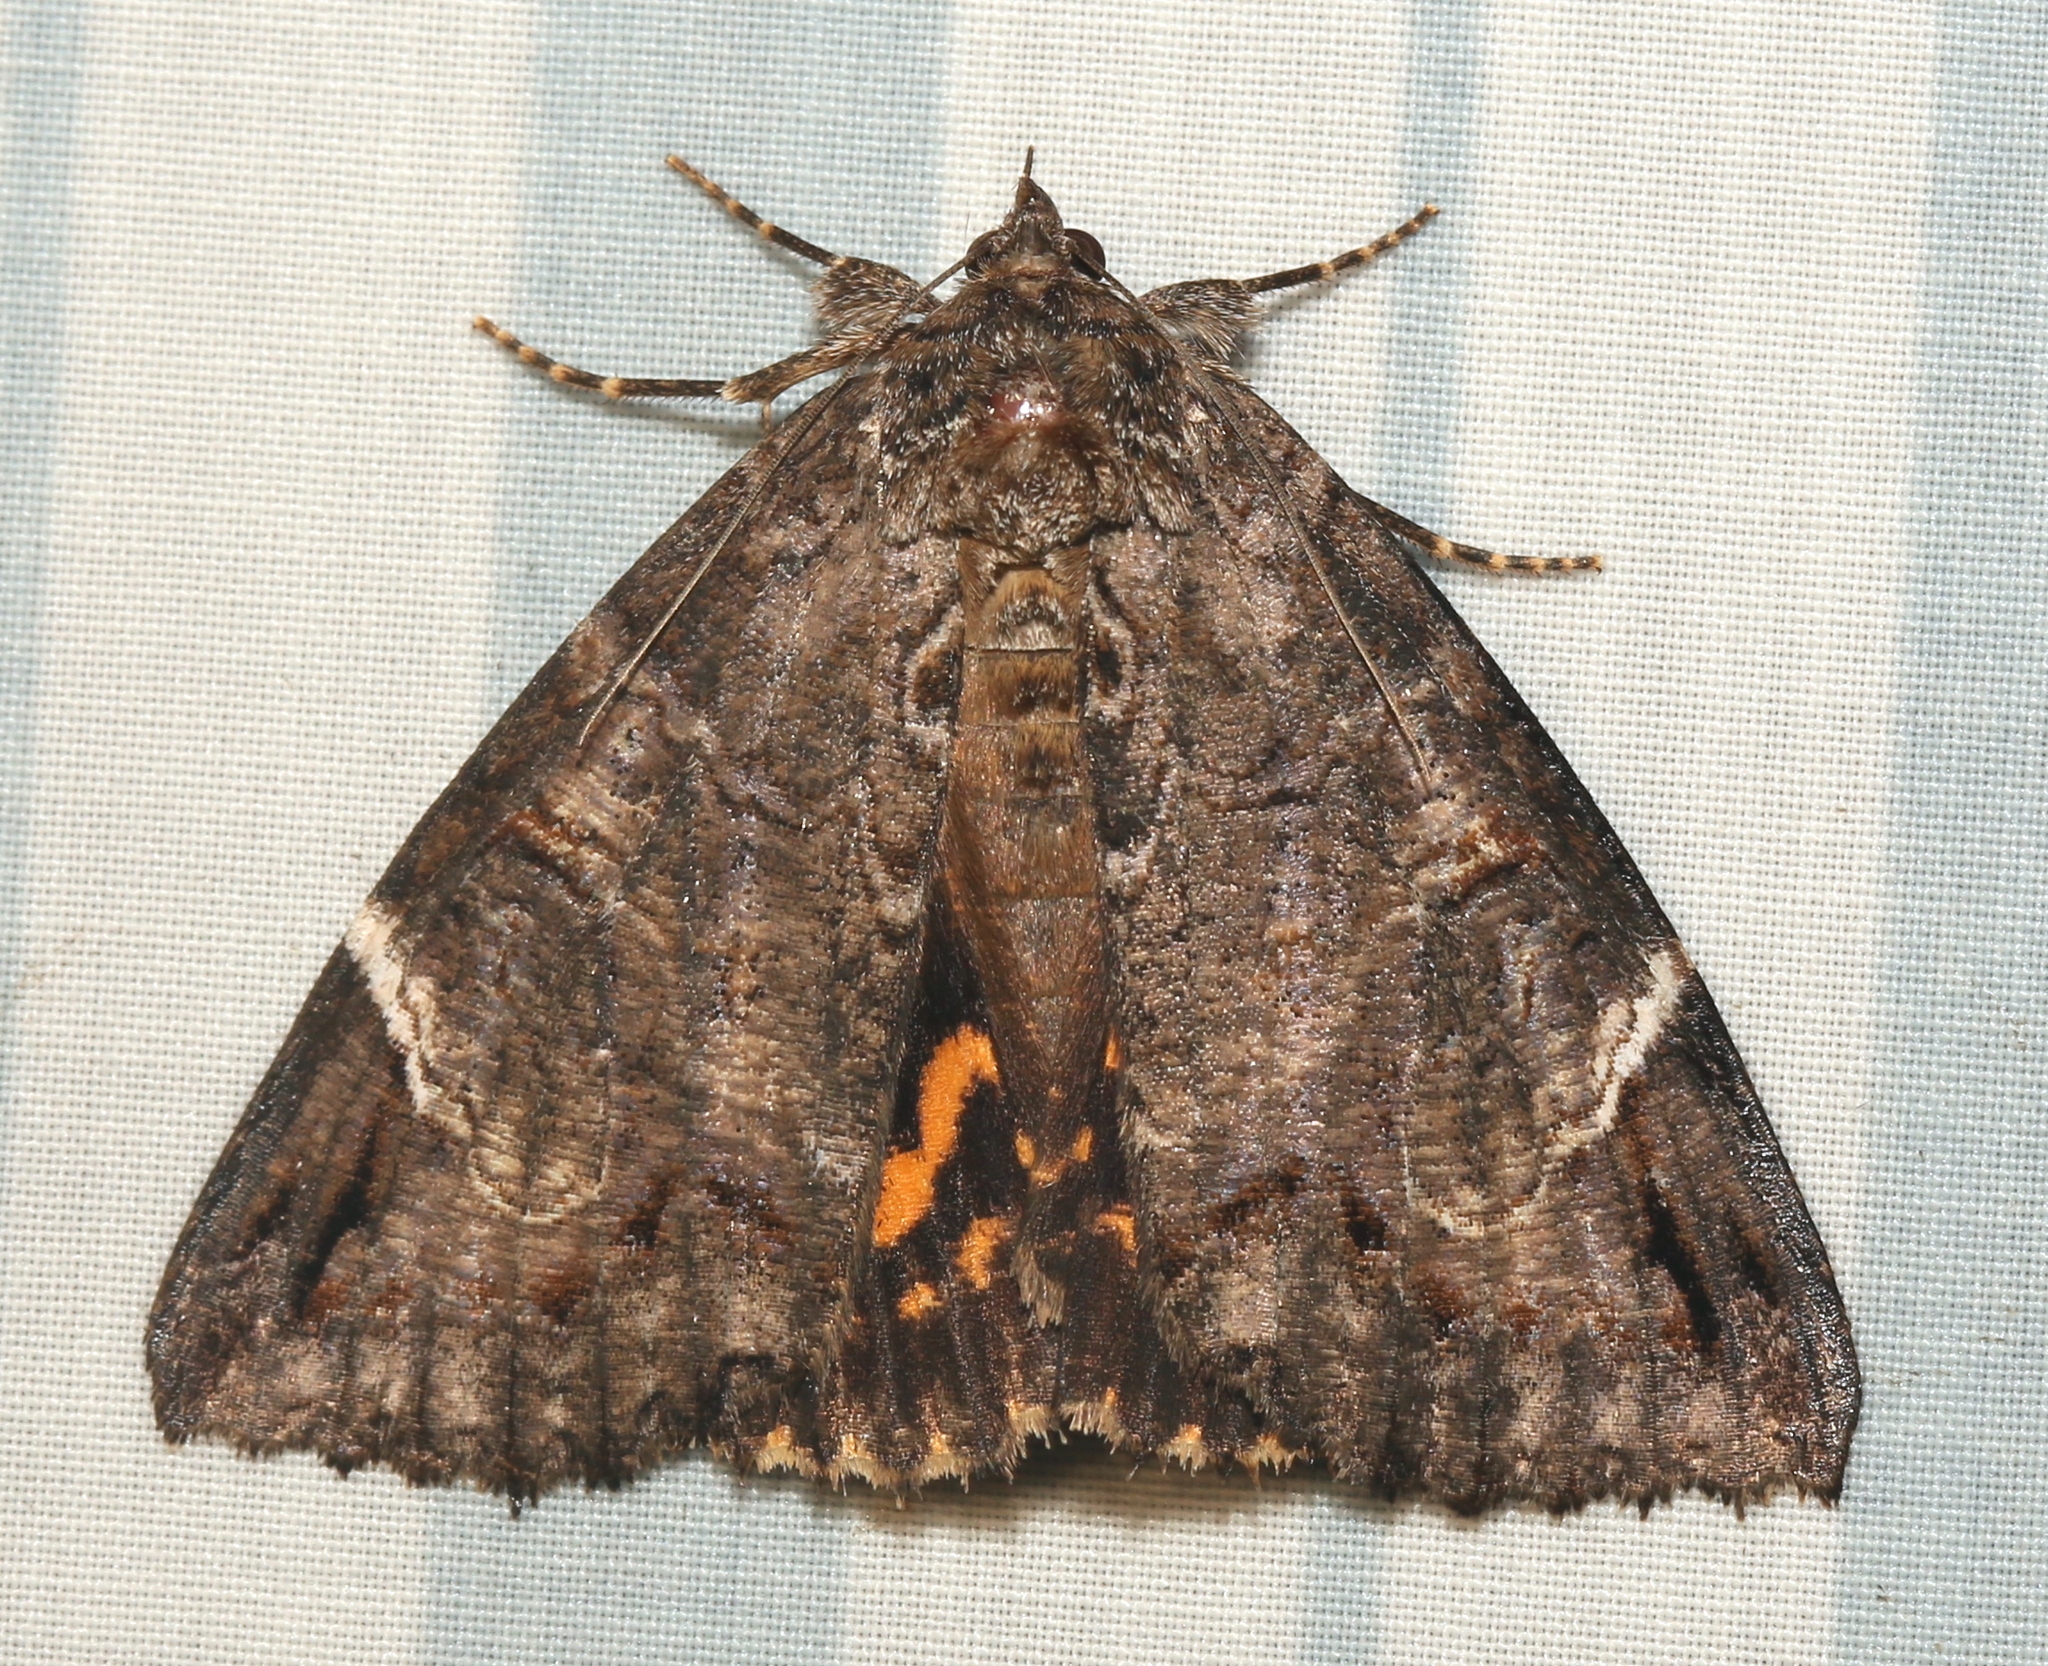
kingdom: Animalia
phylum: Arthropoda
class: Insecta
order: Lepidoptera
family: Erebidae
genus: Euparthenos
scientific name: Euparthenos nubilis
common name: Locust underwing
